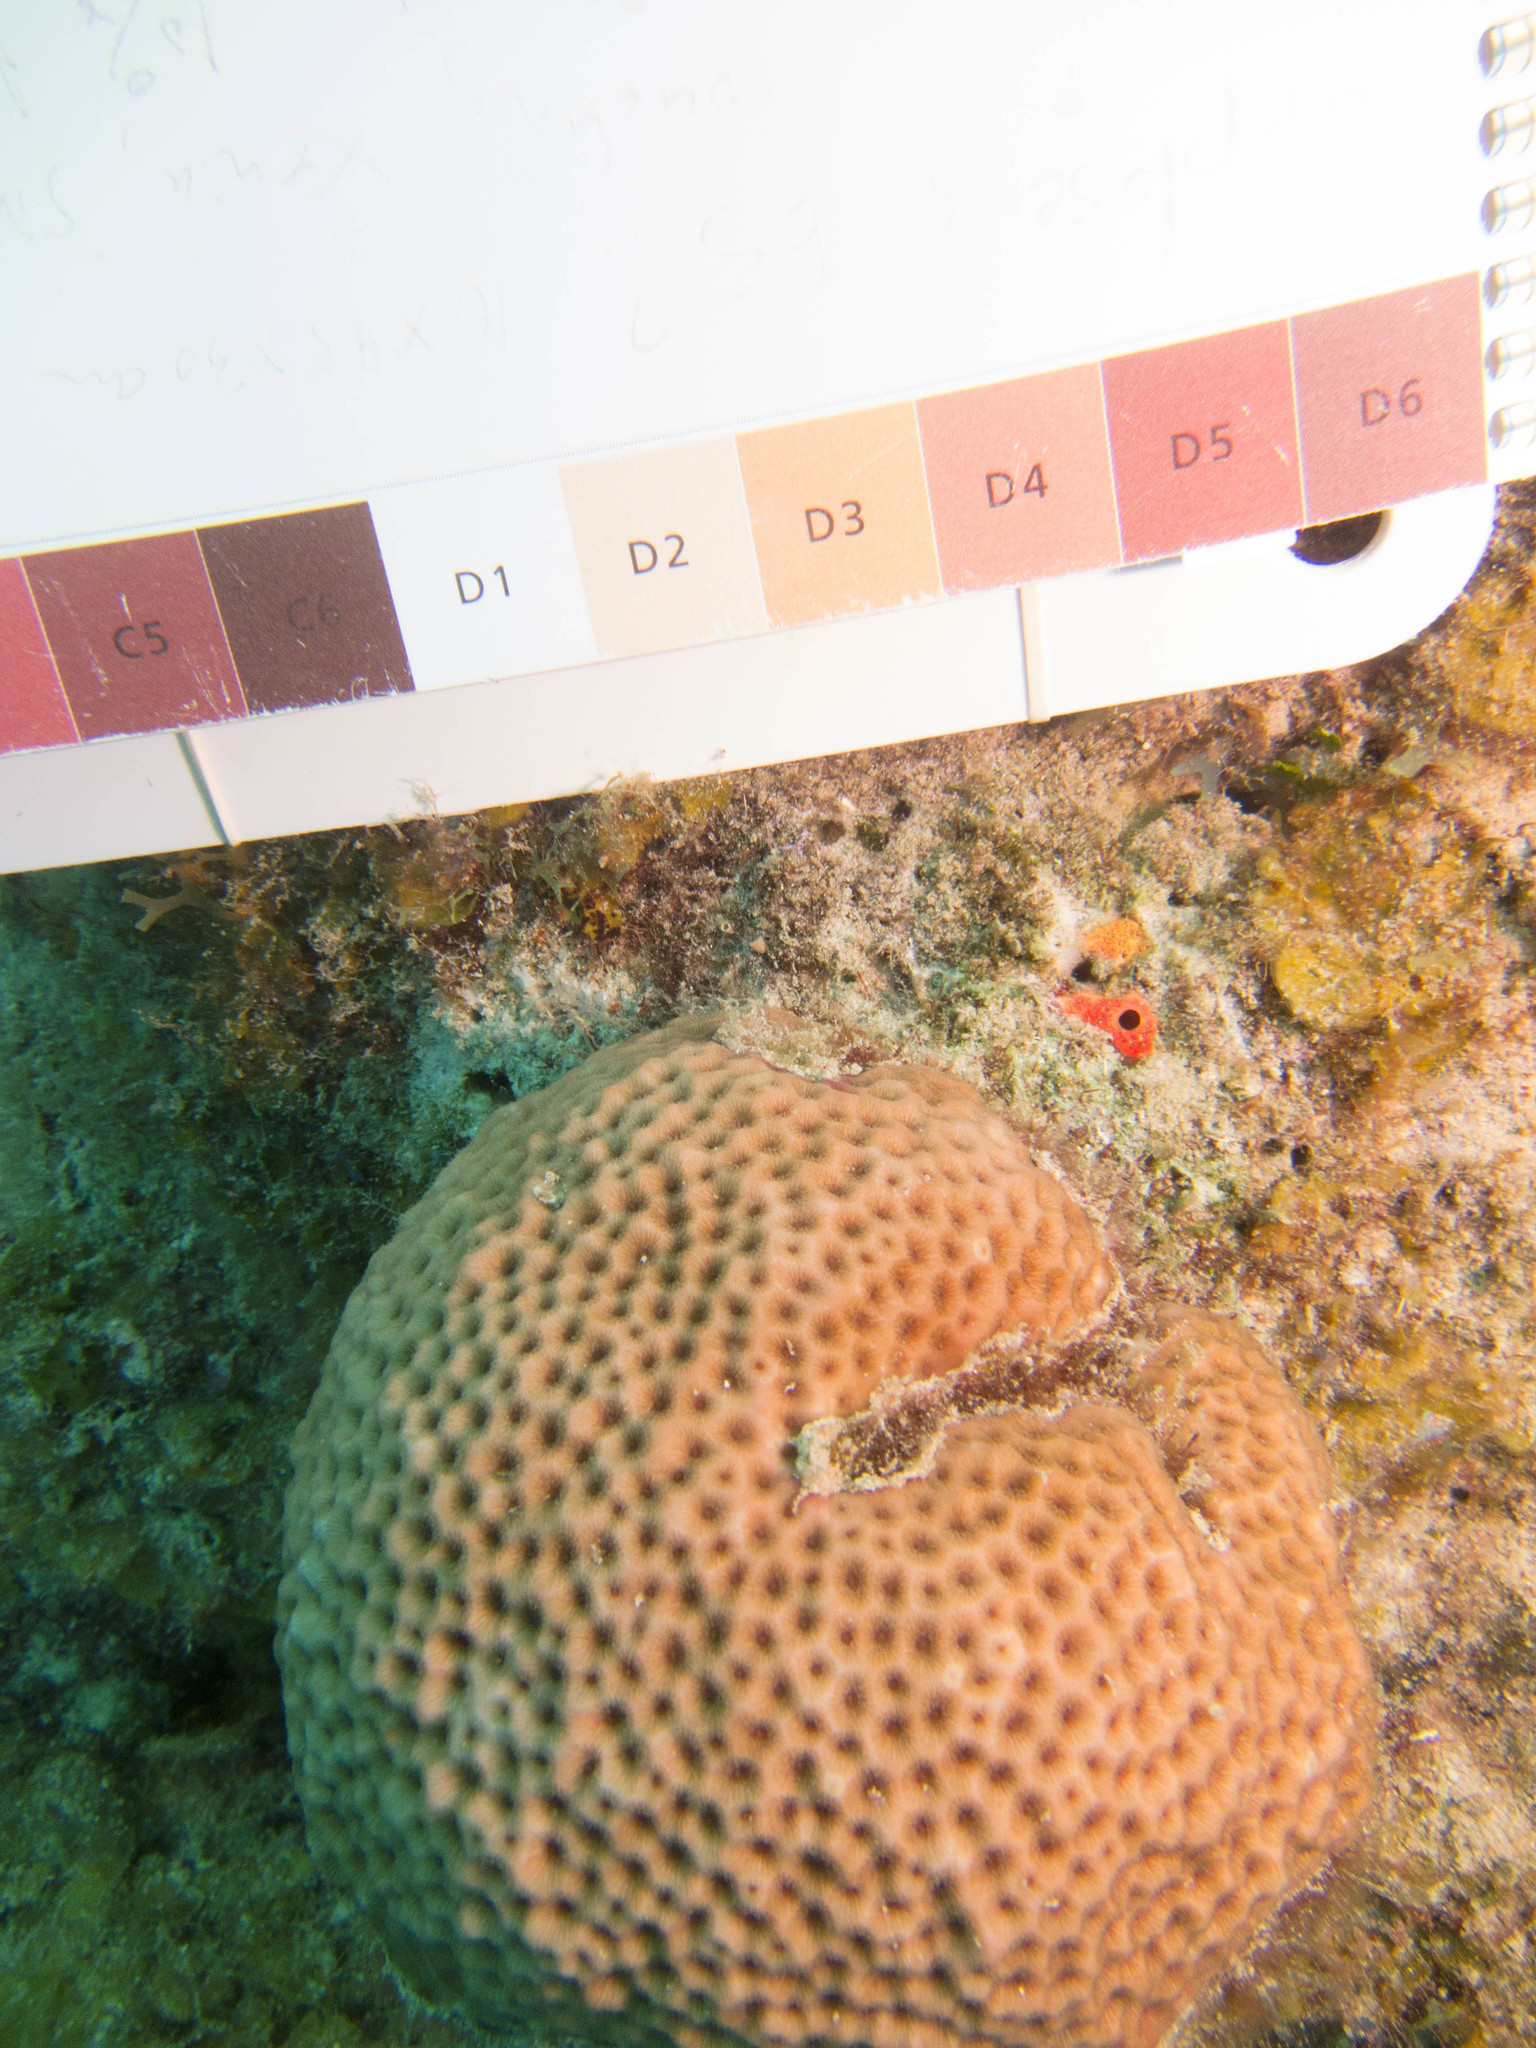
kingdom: Animalia
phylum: Cnidaria
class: Anthozoa
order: Scleractinia
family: Rhizangiidae
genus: Siderastrea
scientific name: Siderastrea siderea
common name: Massive starlet coral
